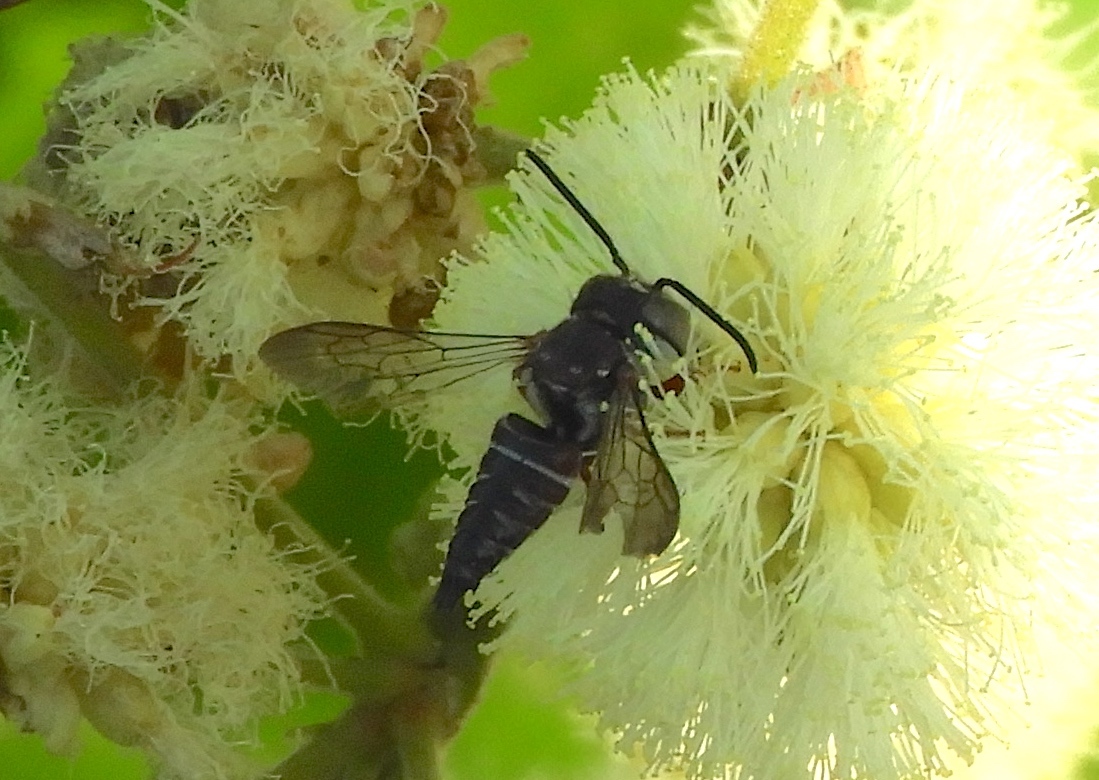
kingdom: Animalia
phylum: Arthropoda
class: Insecta
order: Hymenoptera
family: Megachilidae
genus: Coelioxys
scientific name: Coelioxys
